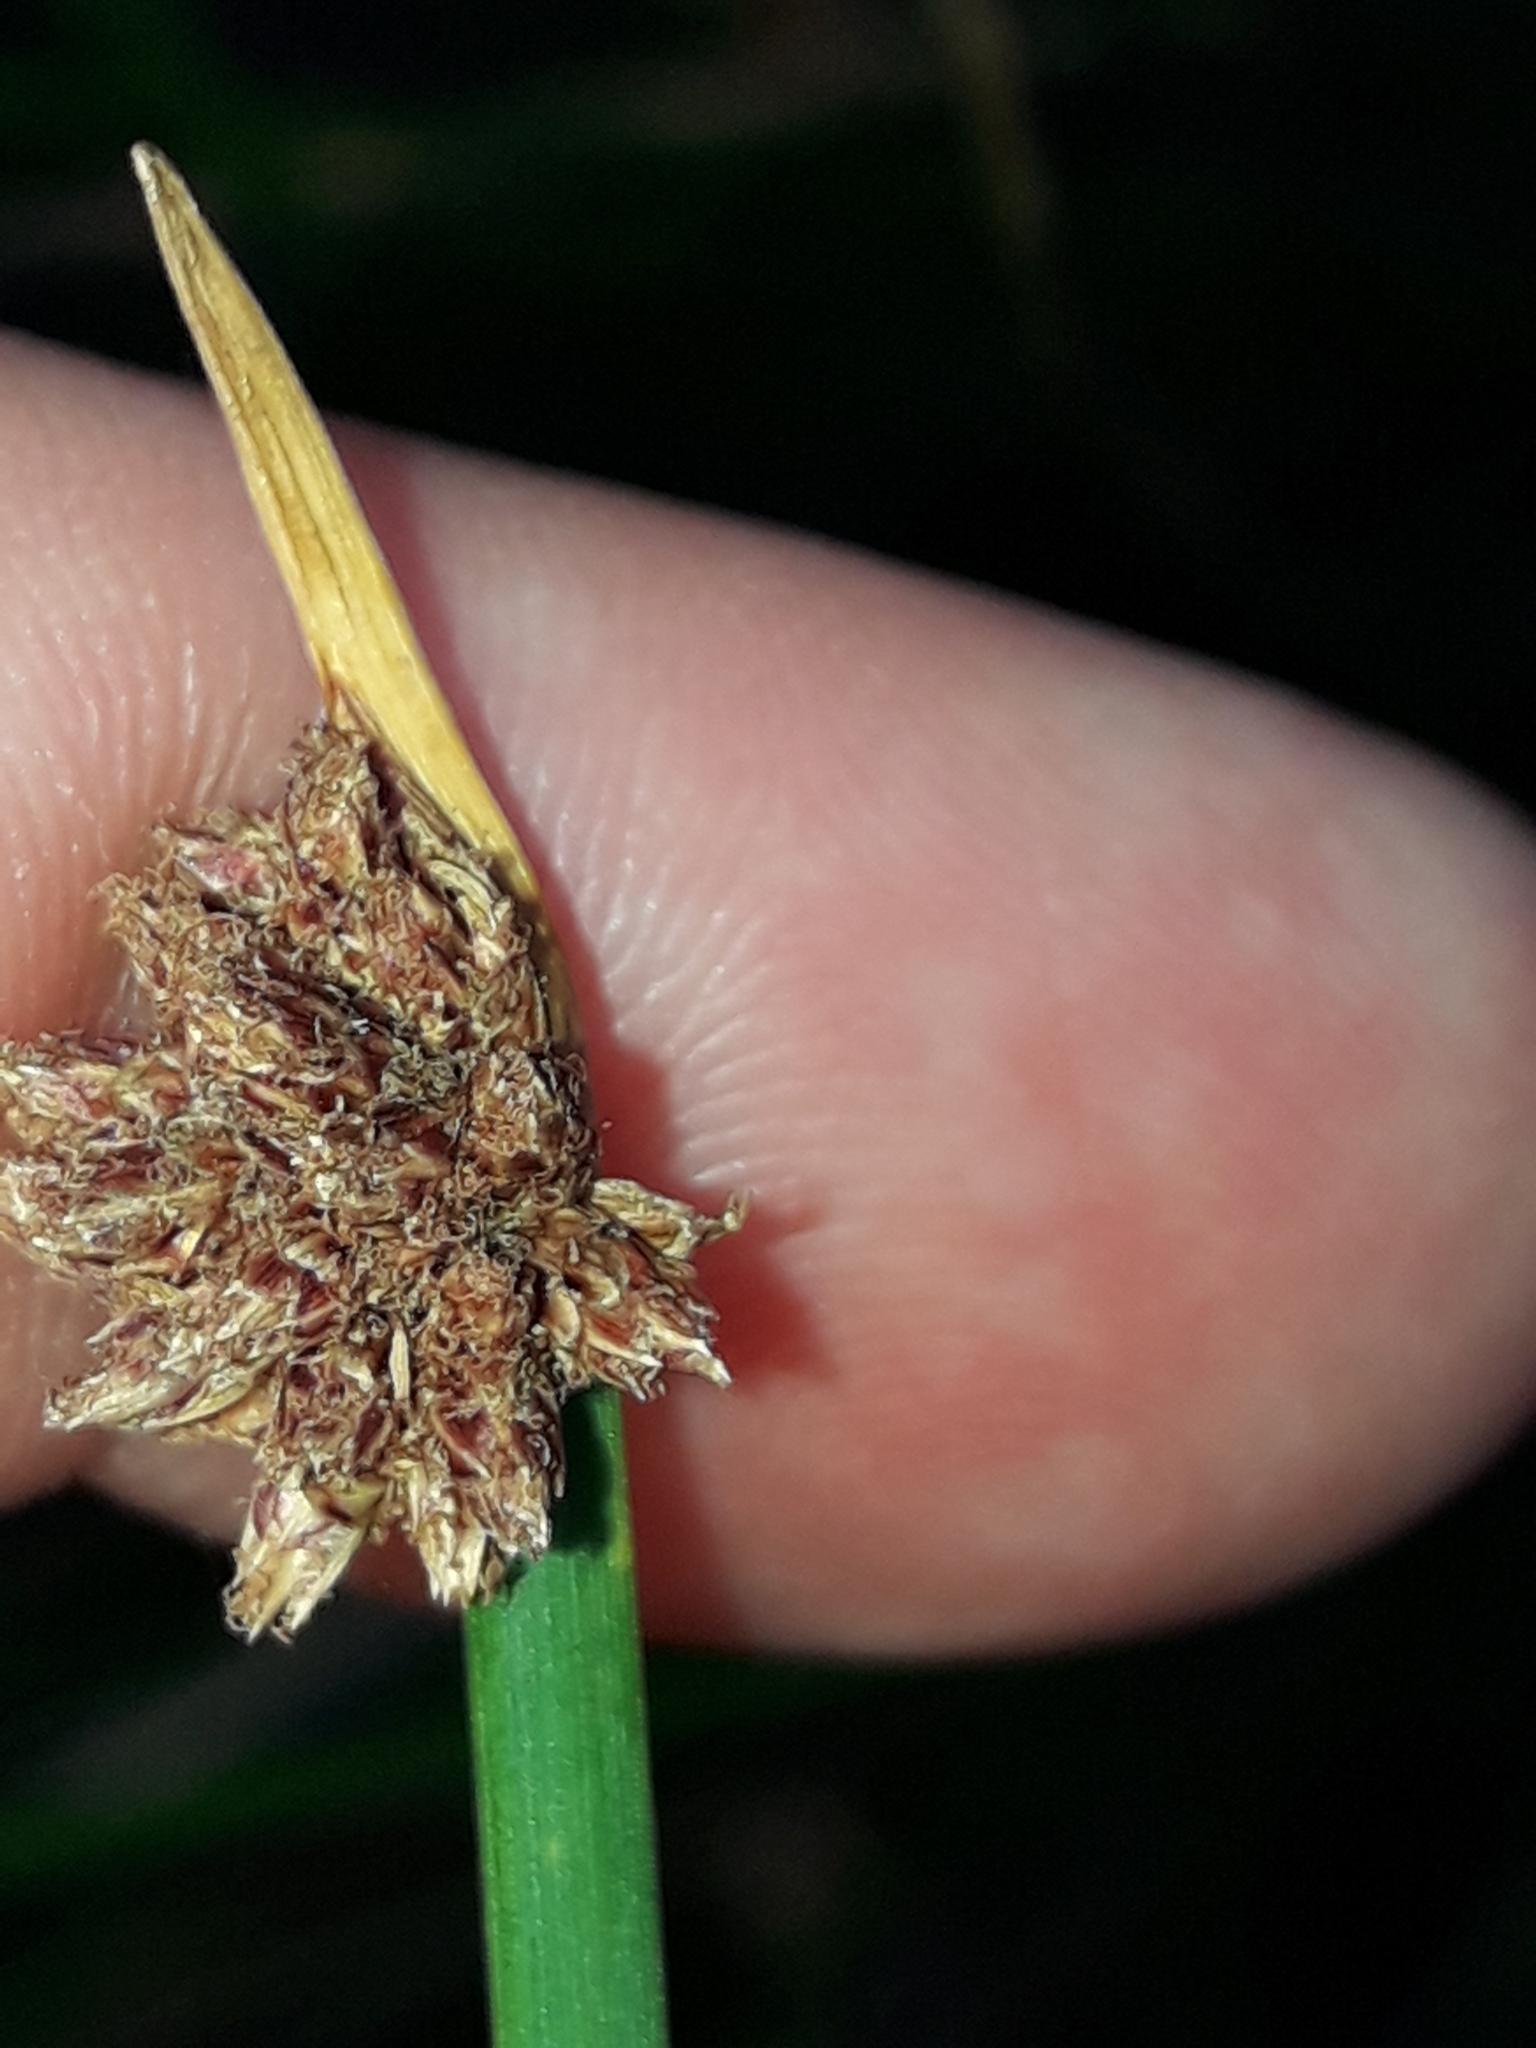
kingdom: Plantae
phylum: Tracheophyta
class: Liliopsida
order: Poales
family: Cyperaceae
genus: Ficinia
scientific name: Ficinia nodosa
